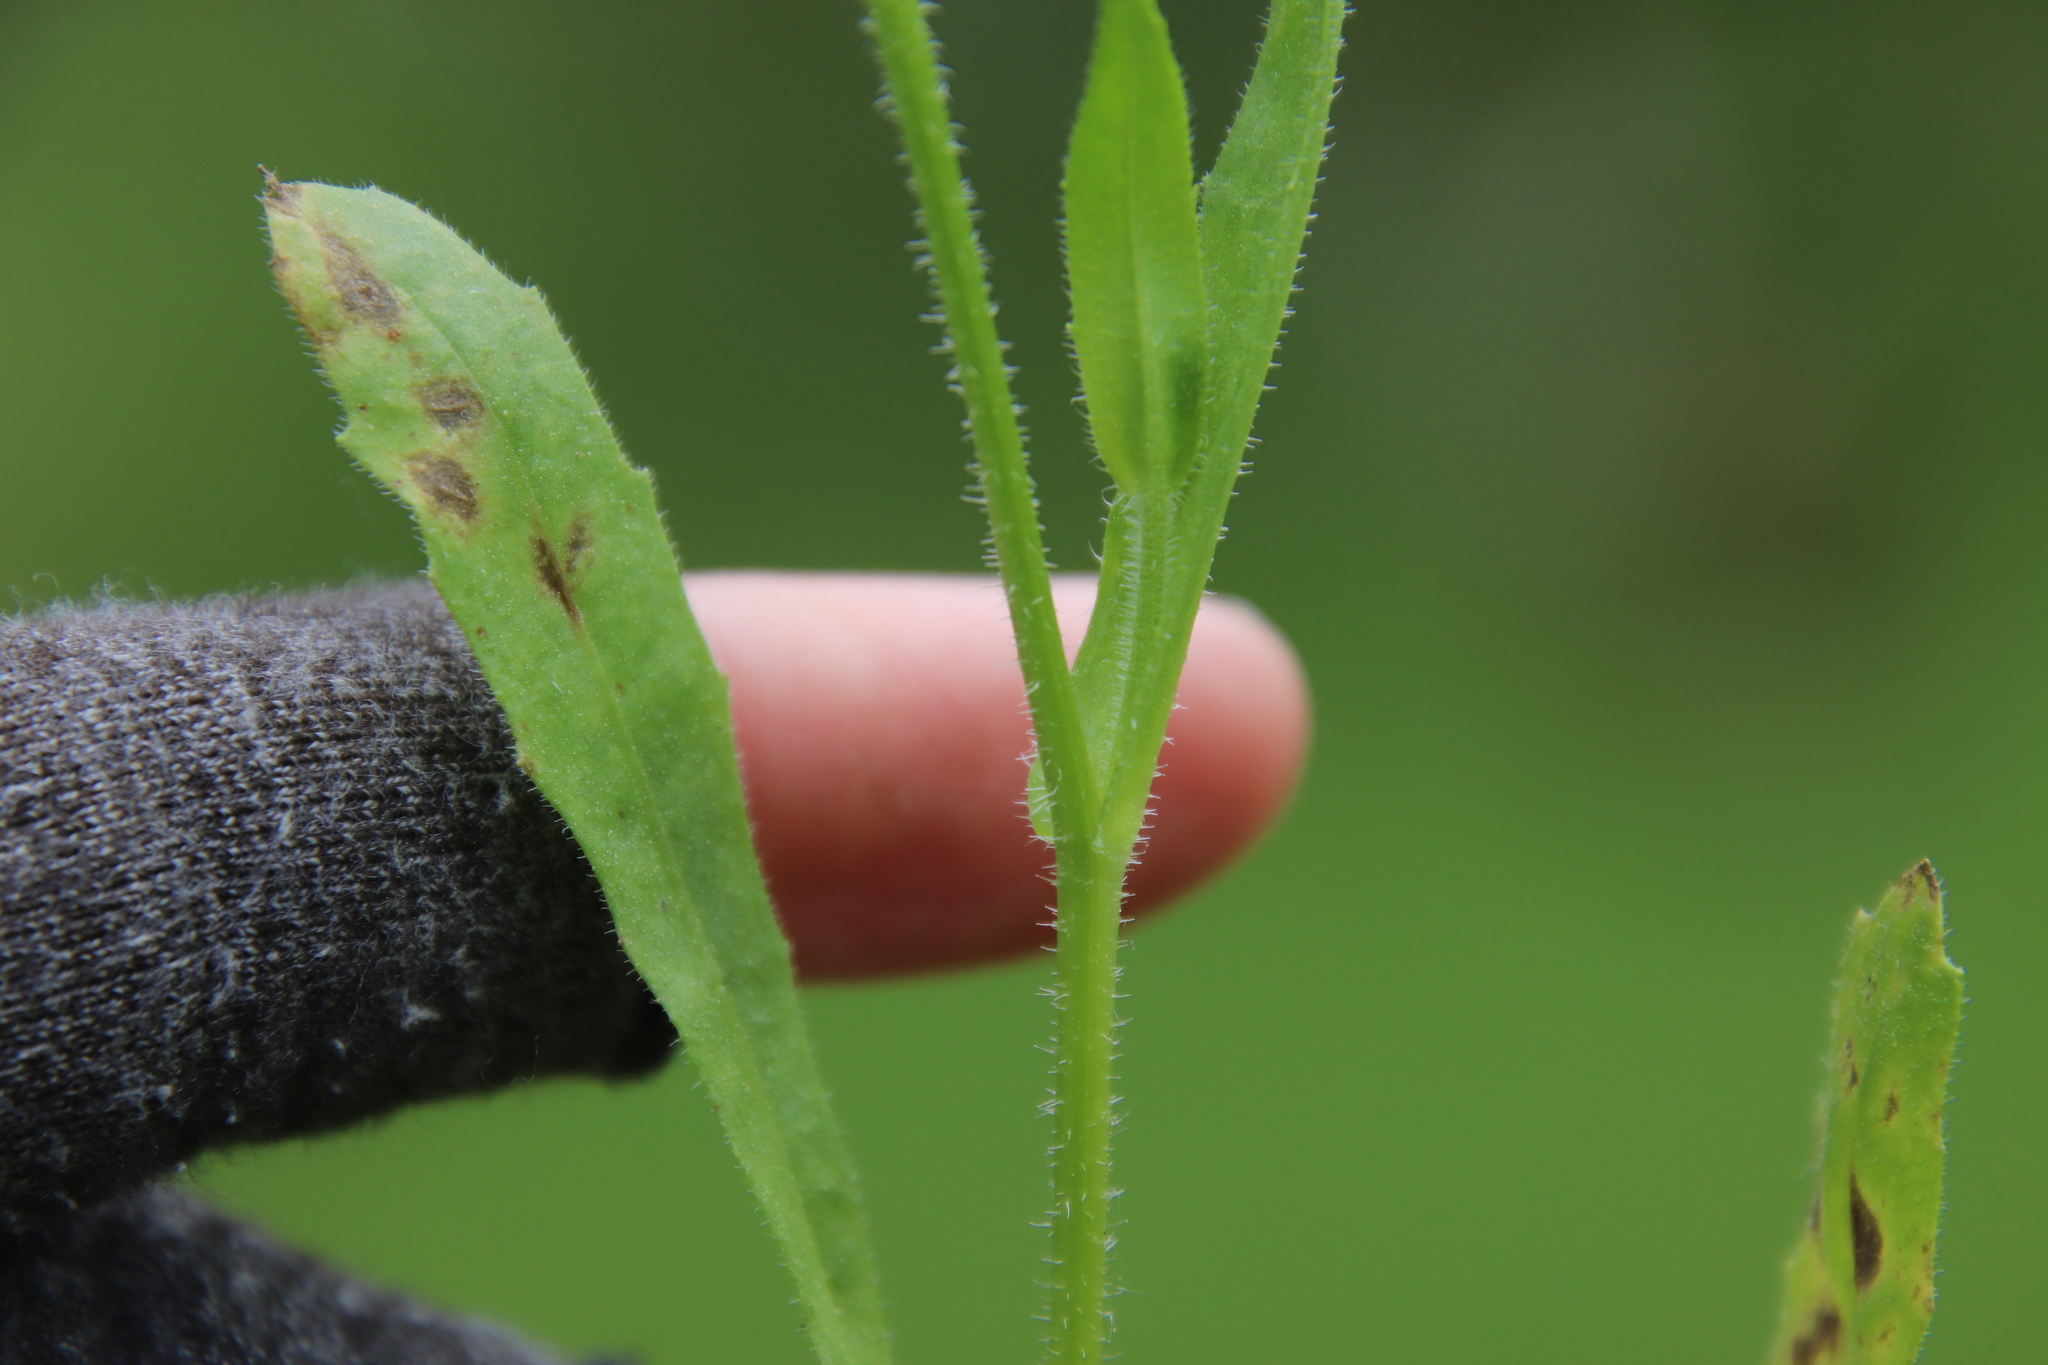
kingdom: Plantae
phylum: Tracheophyta
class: Magnoliopsida
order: Asterales
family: Asteraceae
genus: Hedypnois
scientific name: Hedypnois rhagadioloides
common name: Cretan weed
